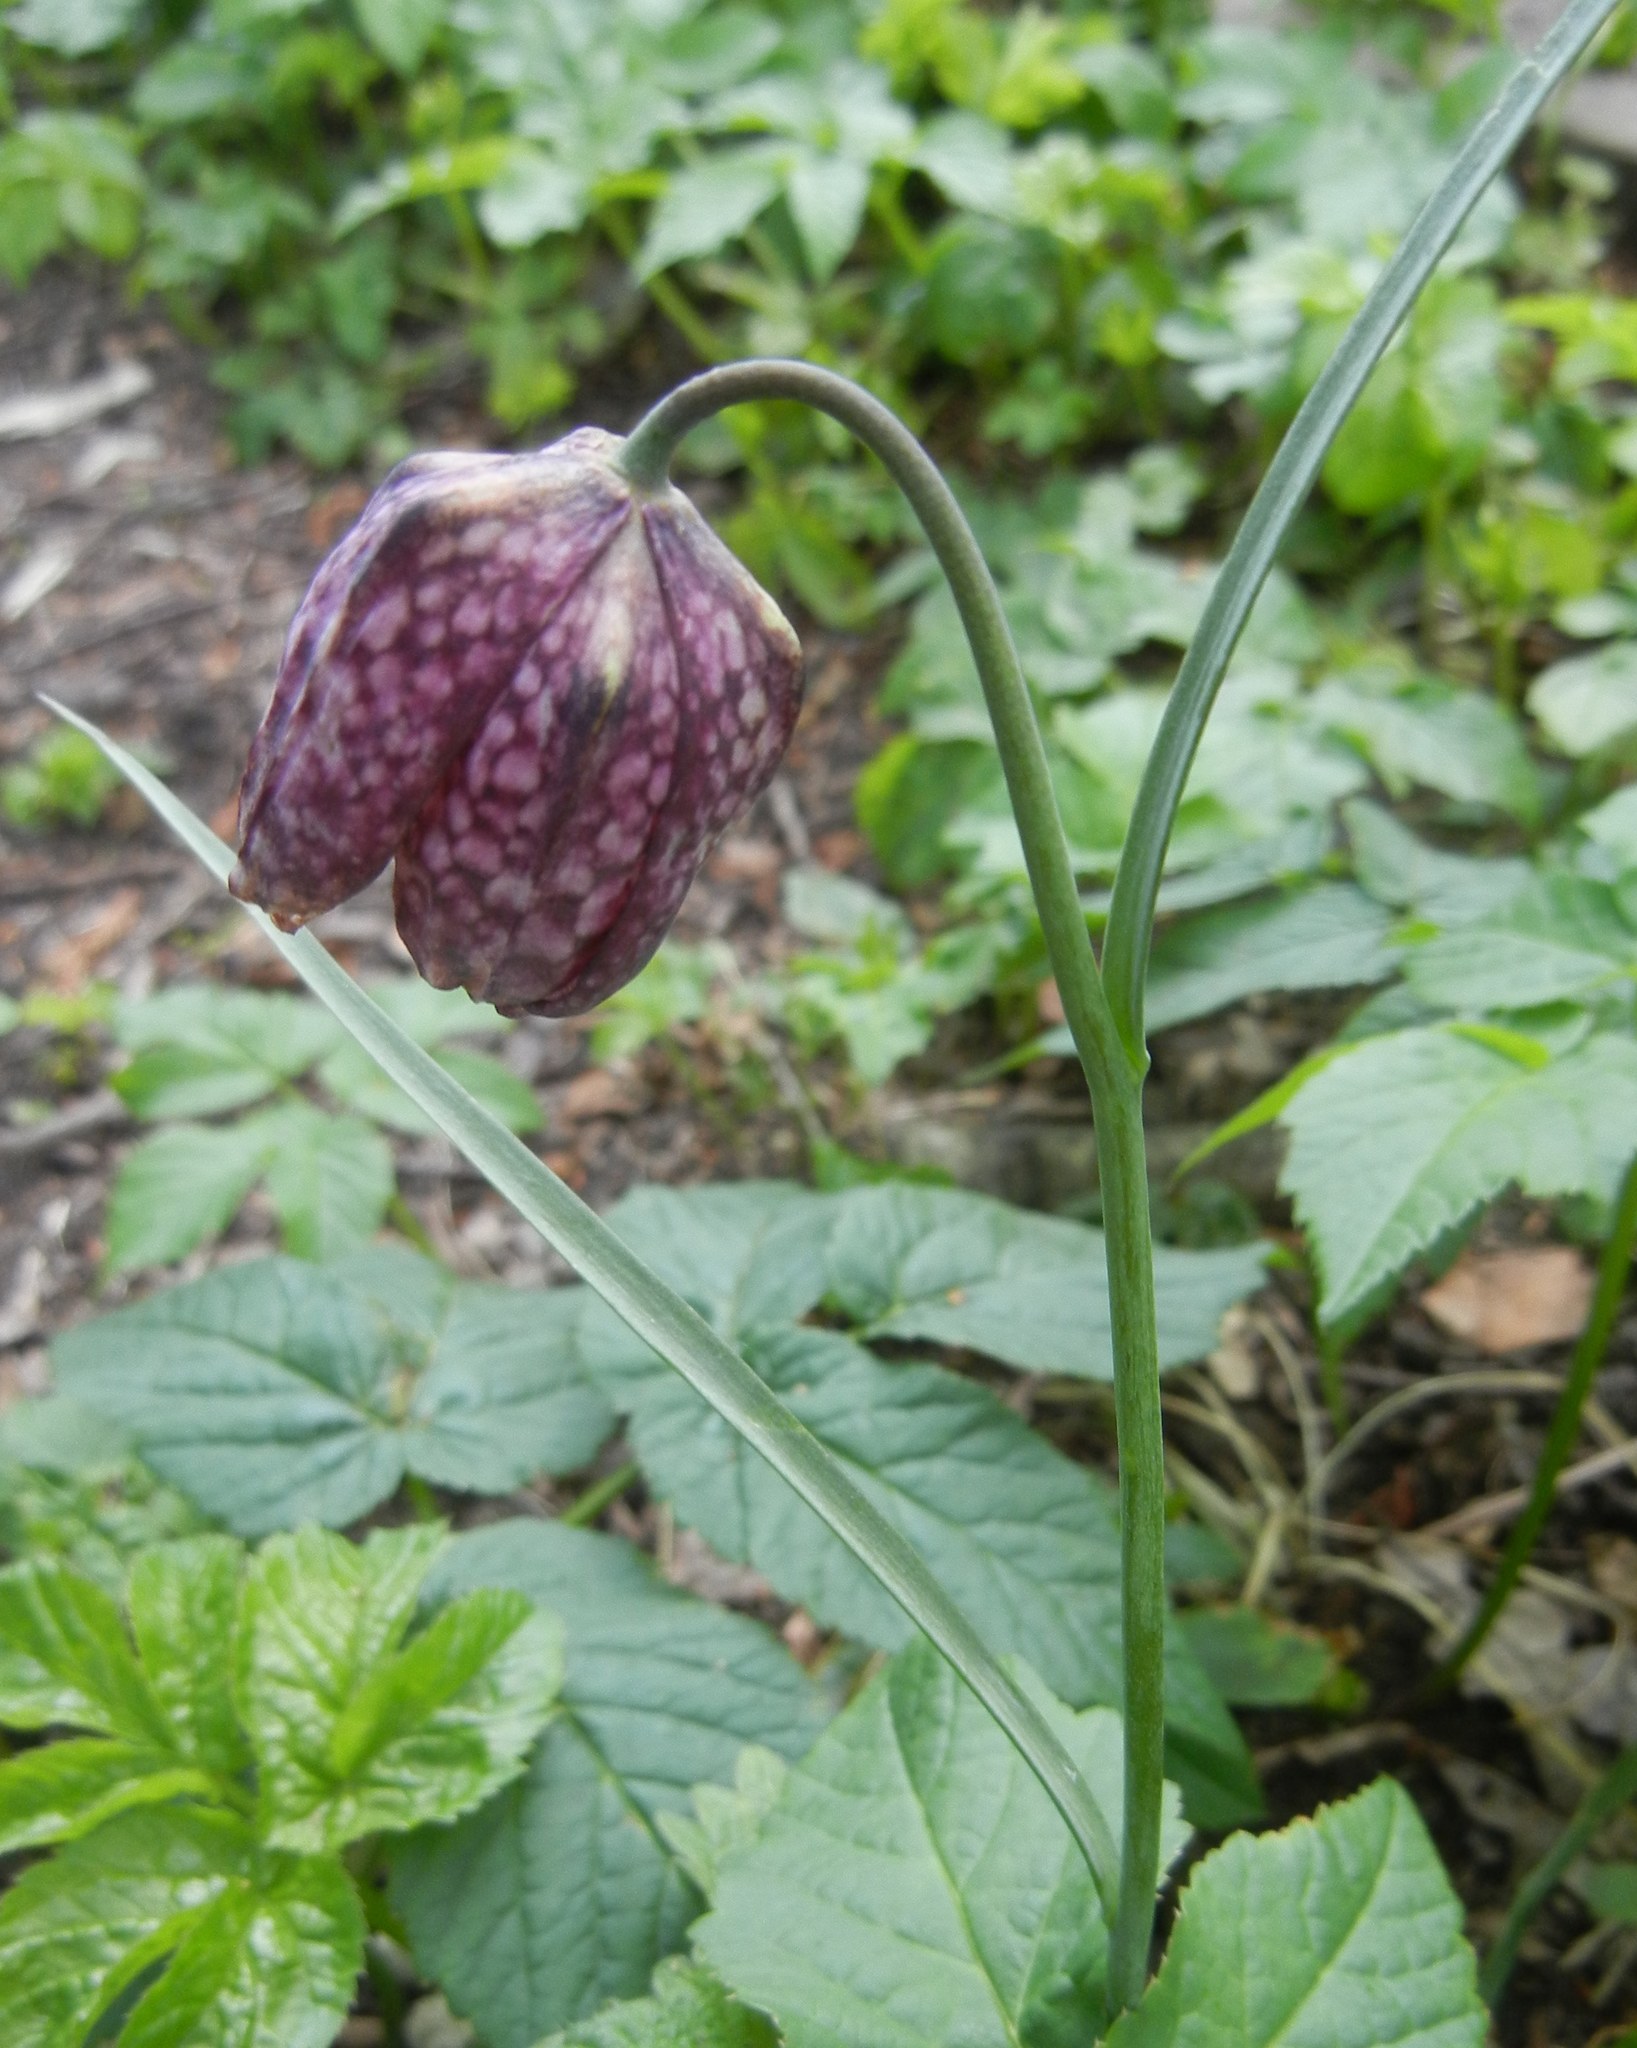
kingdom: Plantae
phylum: Tracheophyta
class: Liliopsida
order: Liliales
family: Liliaceae
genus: Fritillaria
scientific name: Fritillaria meleagris
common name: Fritillary
